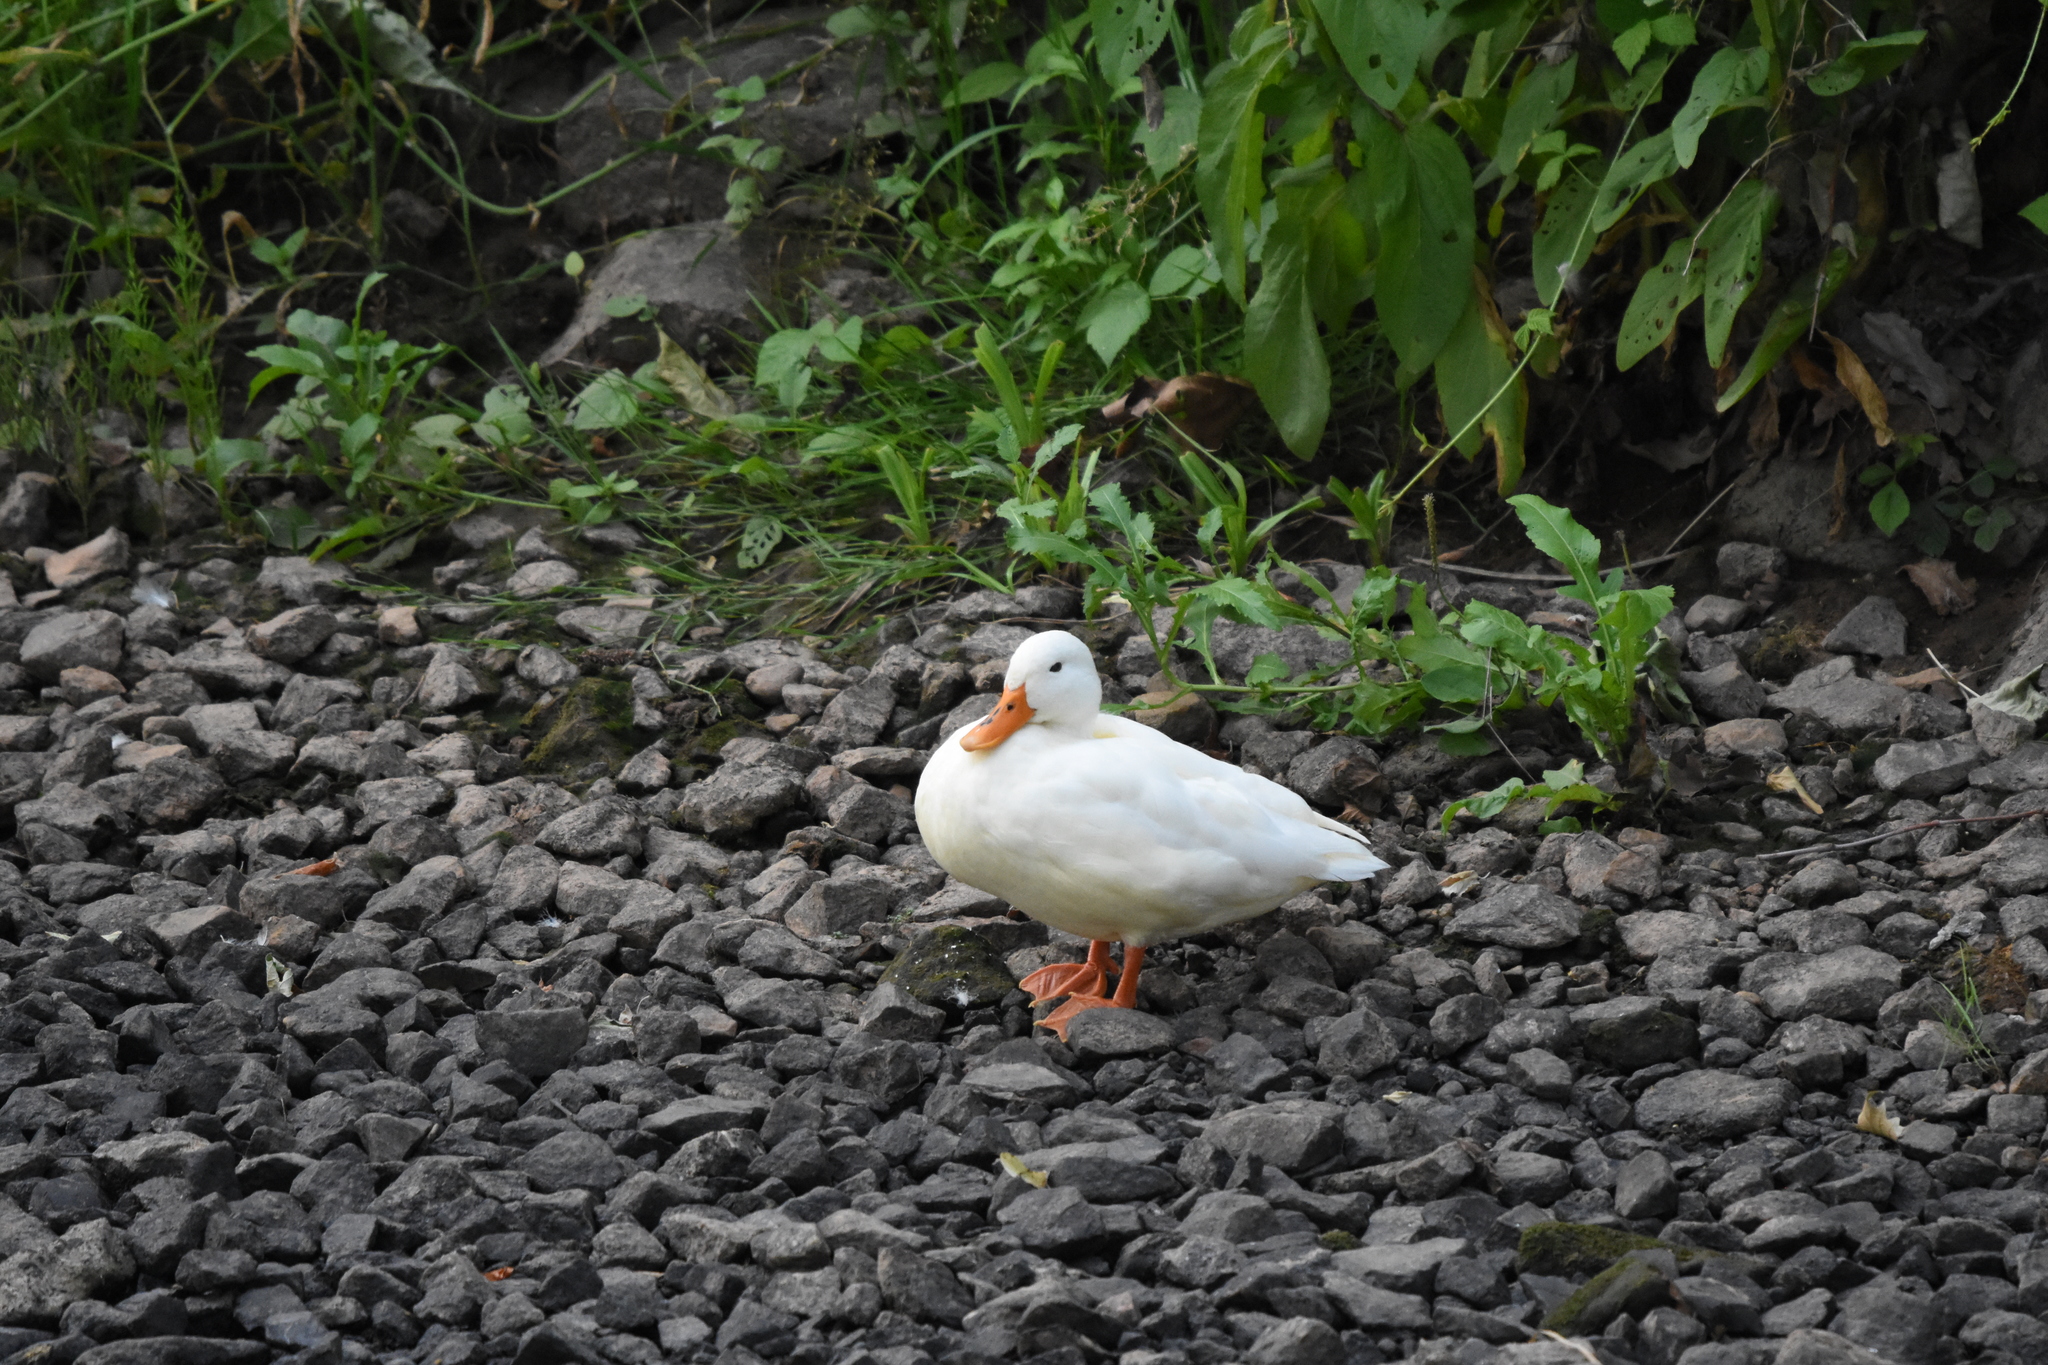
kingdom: Animalia
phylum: Chordata
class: Aves
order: Anseriformes
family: Anatidae
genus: Anas
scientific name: Anas platyrhynchos
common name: Mallard
